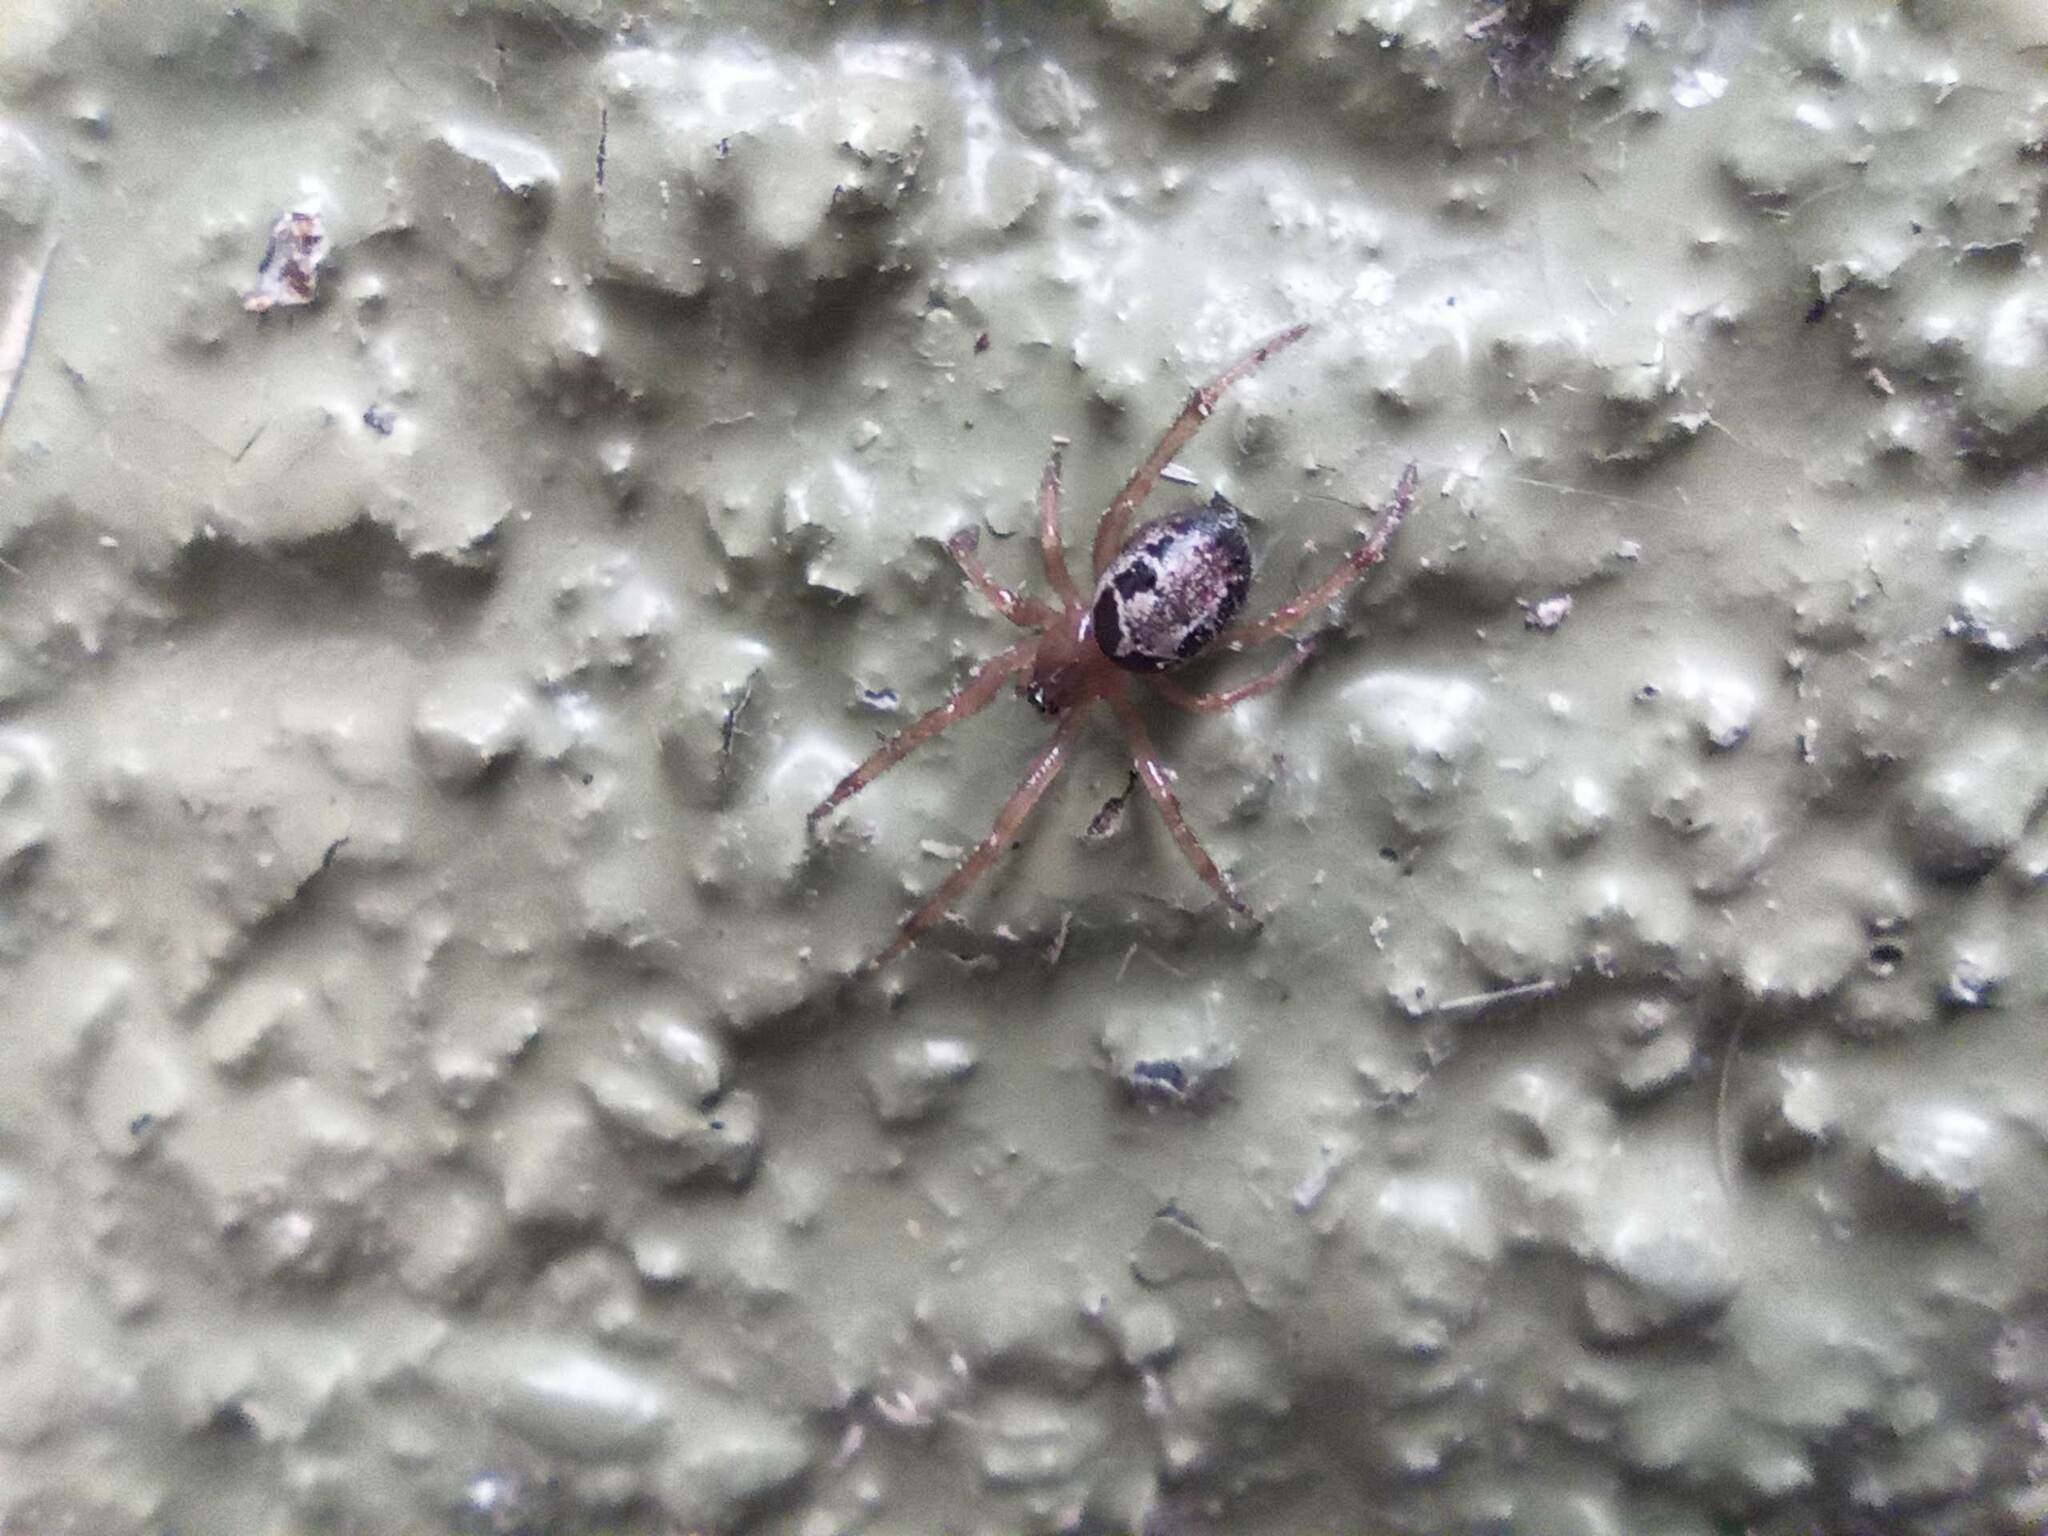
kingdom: Animalia
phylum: Arthropoda
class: Arachnida
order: Araneae
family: Theridiidae
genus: Steatoda
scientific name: Steatoda nobilis
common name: Cobweb weaver
